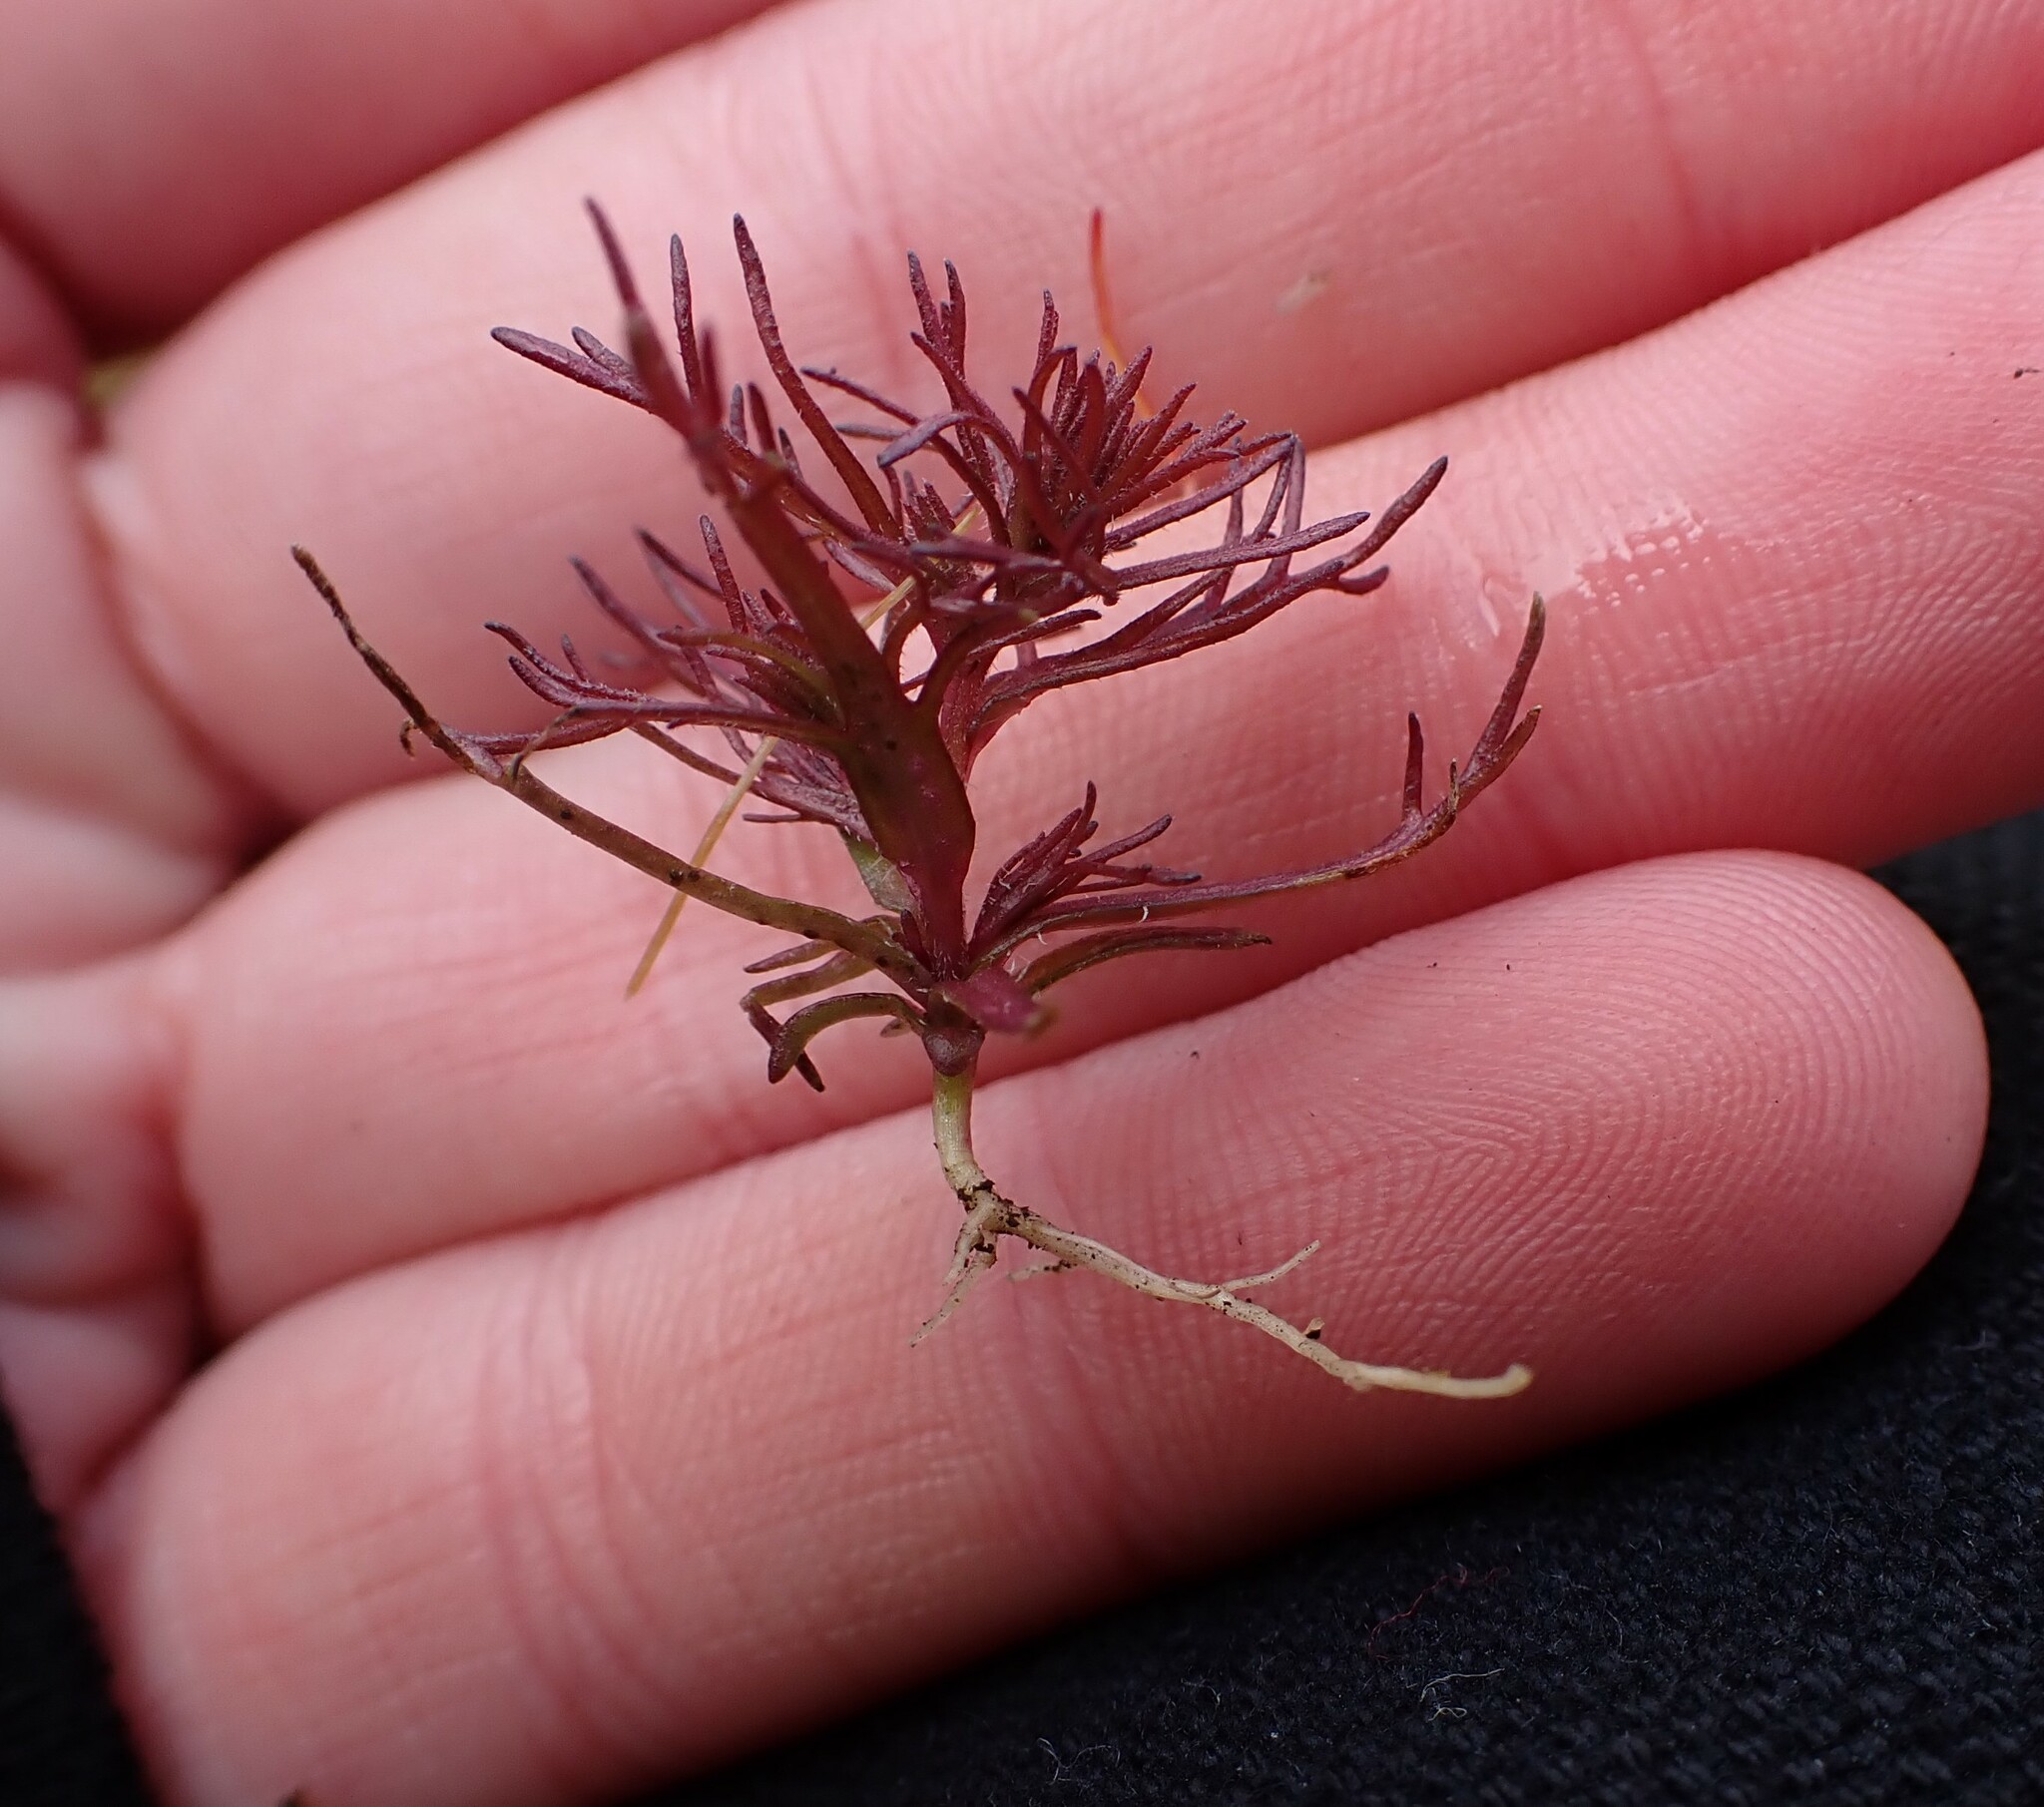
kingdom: Plantae
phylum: Tracheophyta
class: Magnoliopsida
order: Lamiales
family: Orobanchaceae
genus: Triphysaria
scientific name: Triphysaria pusilla
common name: Dwarf false owl-clover
